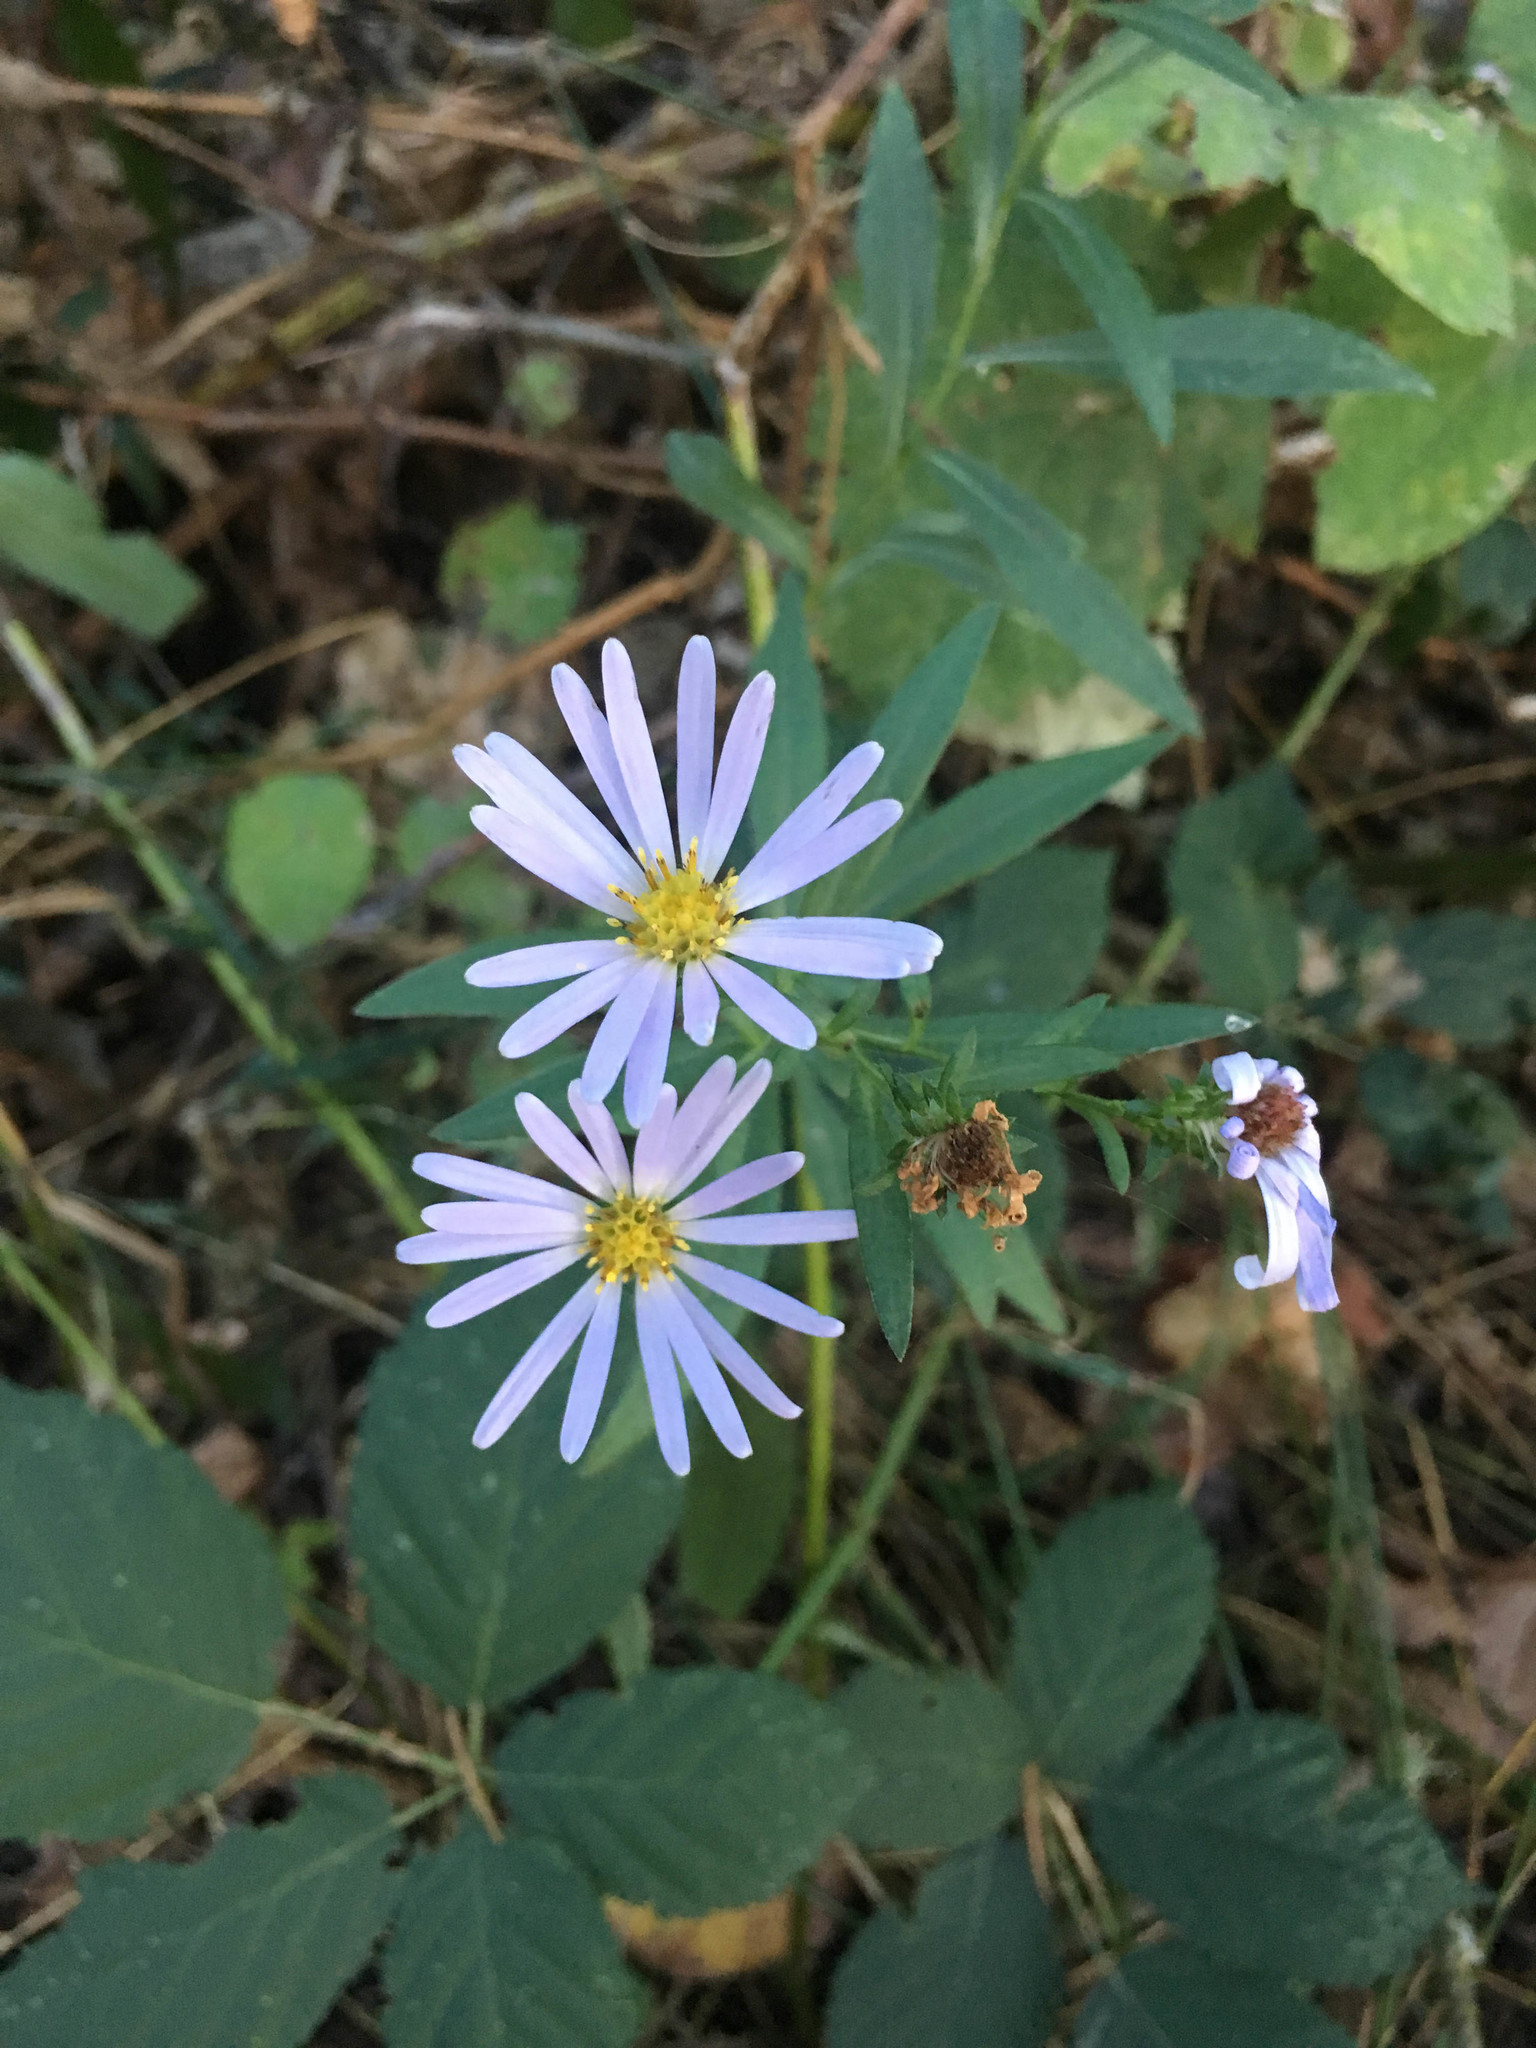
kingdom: Plantae
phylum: Tracheophyta
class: Magnoliopsida
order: Asterales
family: Asteraceae
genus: Symphyotrichum
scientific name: Symphyotrichum subspicatum
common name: Douglas' aster
